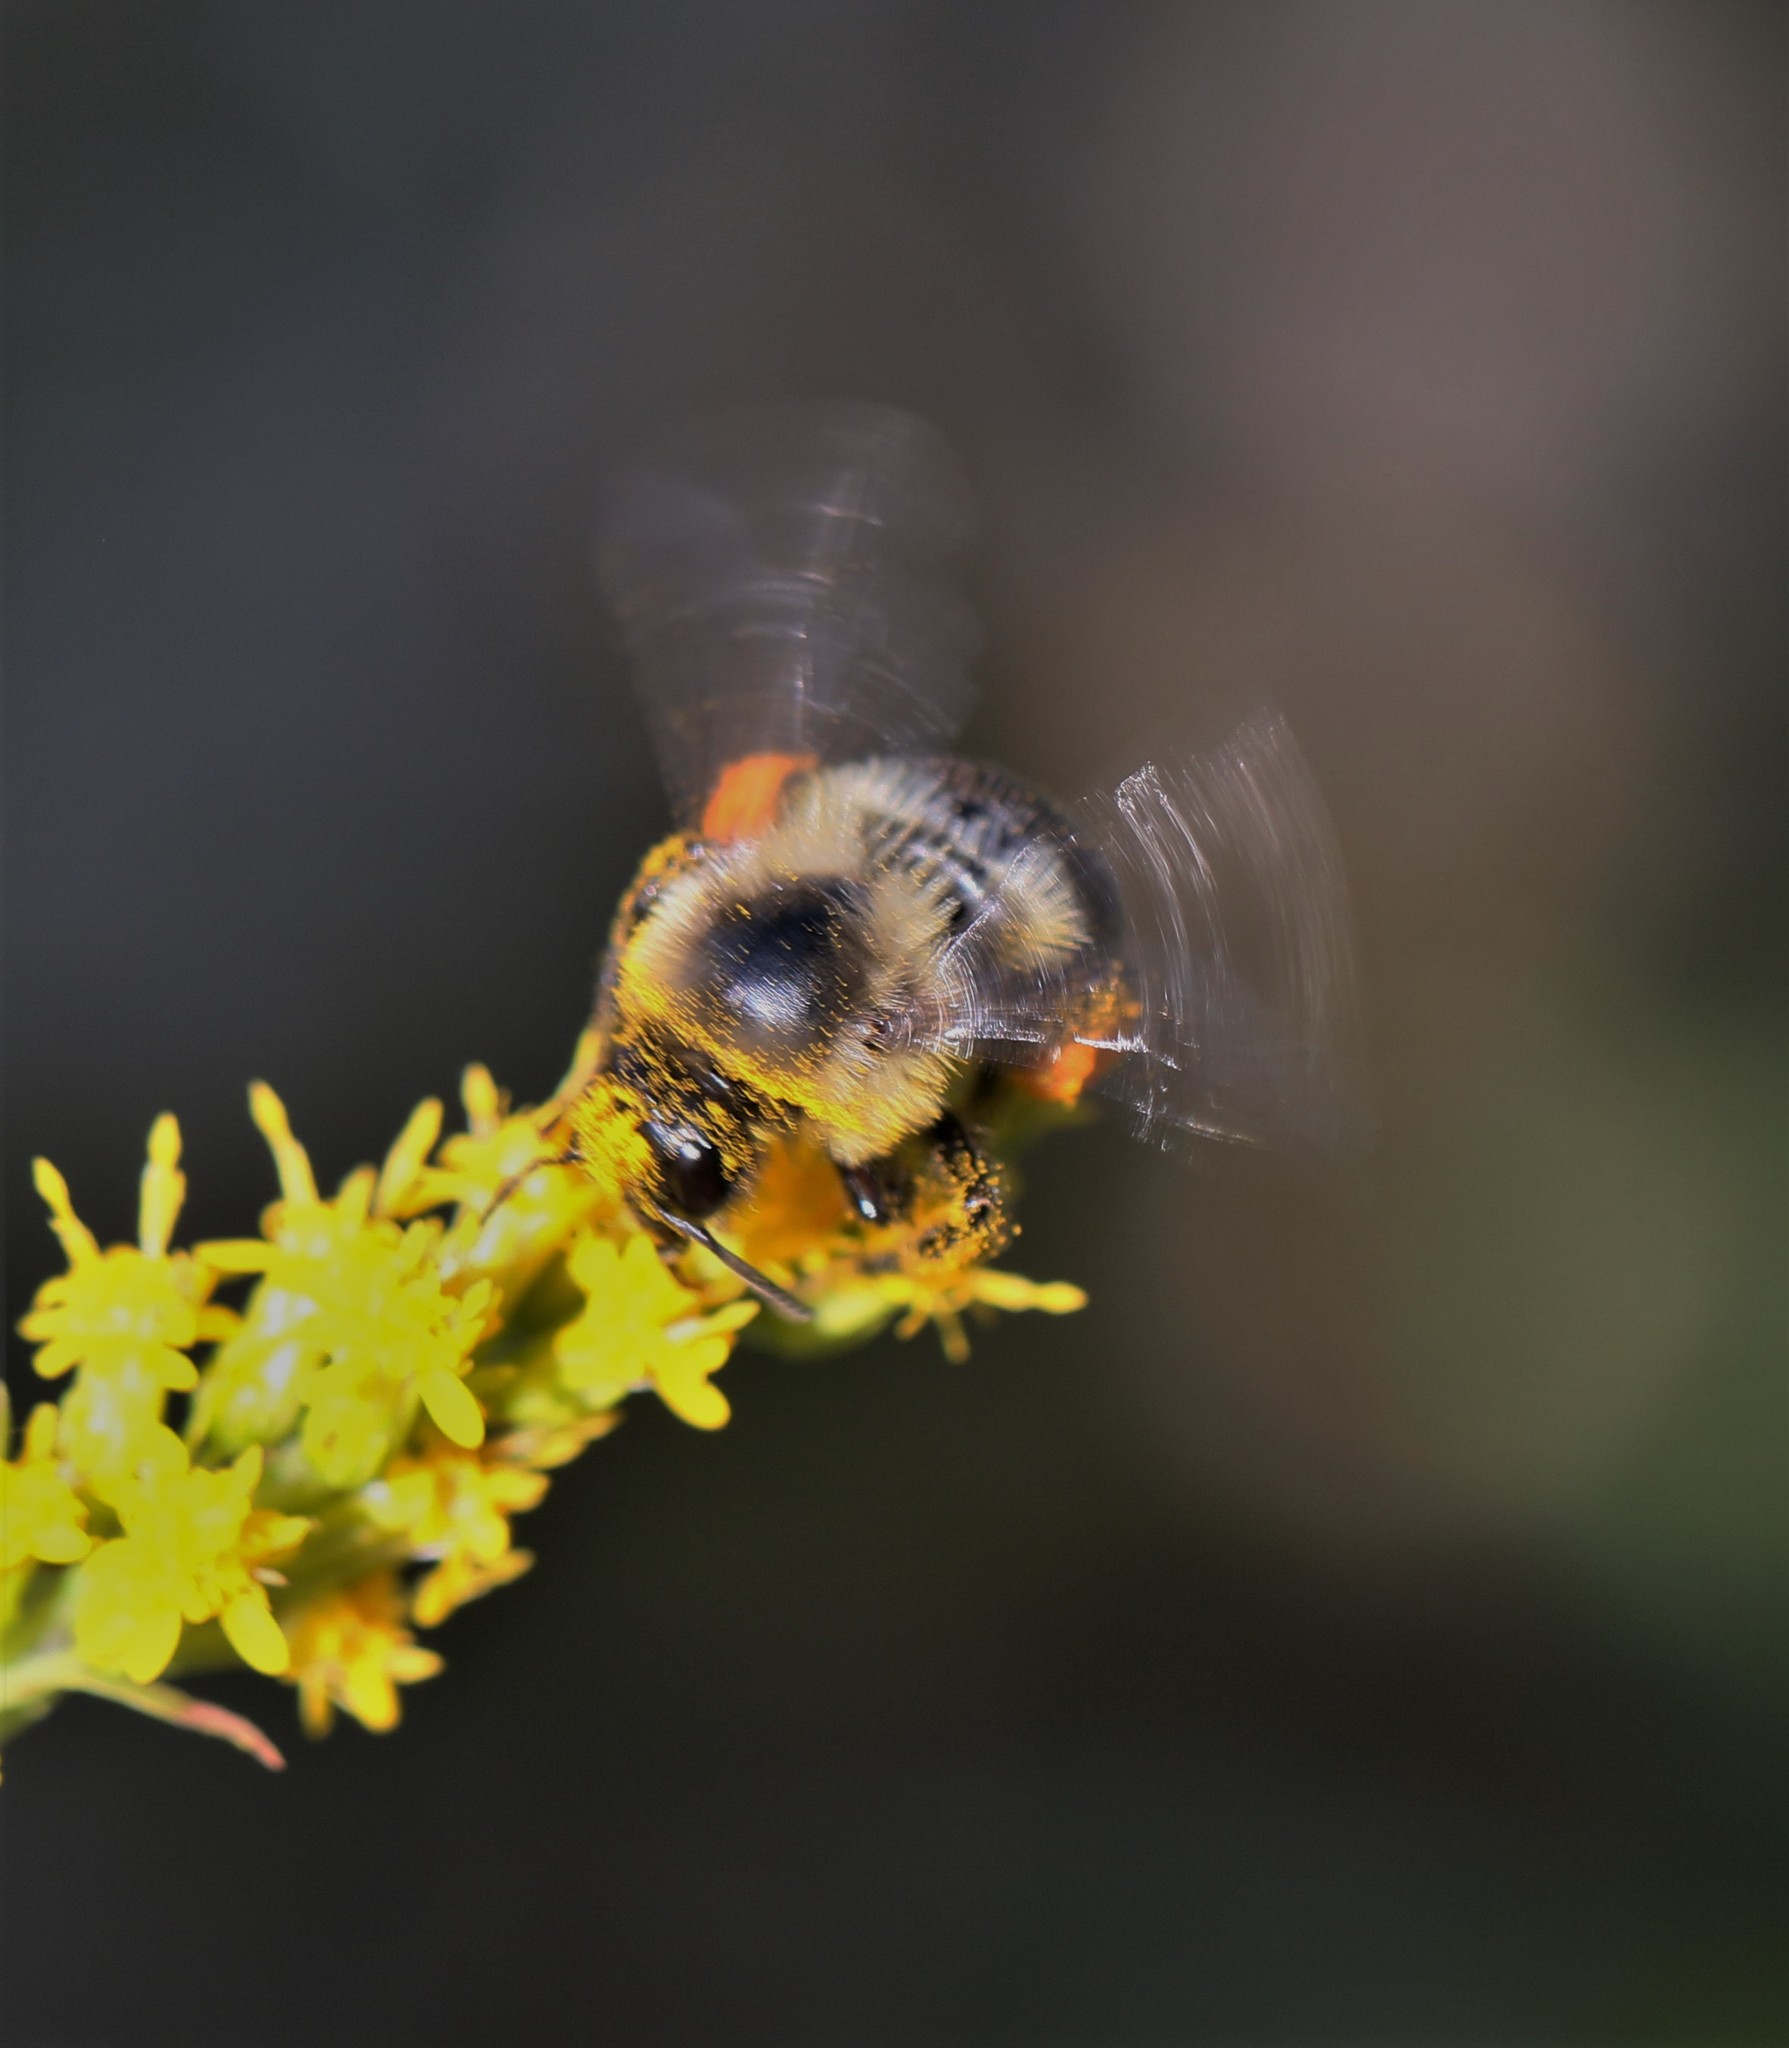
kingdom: Animalia
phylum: Arthropoda
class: Insecta
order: Hymenoptera
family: Apidae
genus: Bombus
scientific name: Bombus
